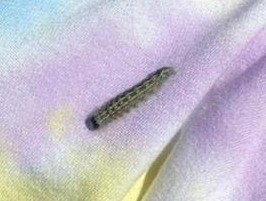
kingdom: Animalia
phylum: Arthropoda
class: Insecta
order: Lepidoptera
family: Noctuidae
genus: Acronicta
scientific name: Acronicta lobeliae
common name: Greater oak dagger
